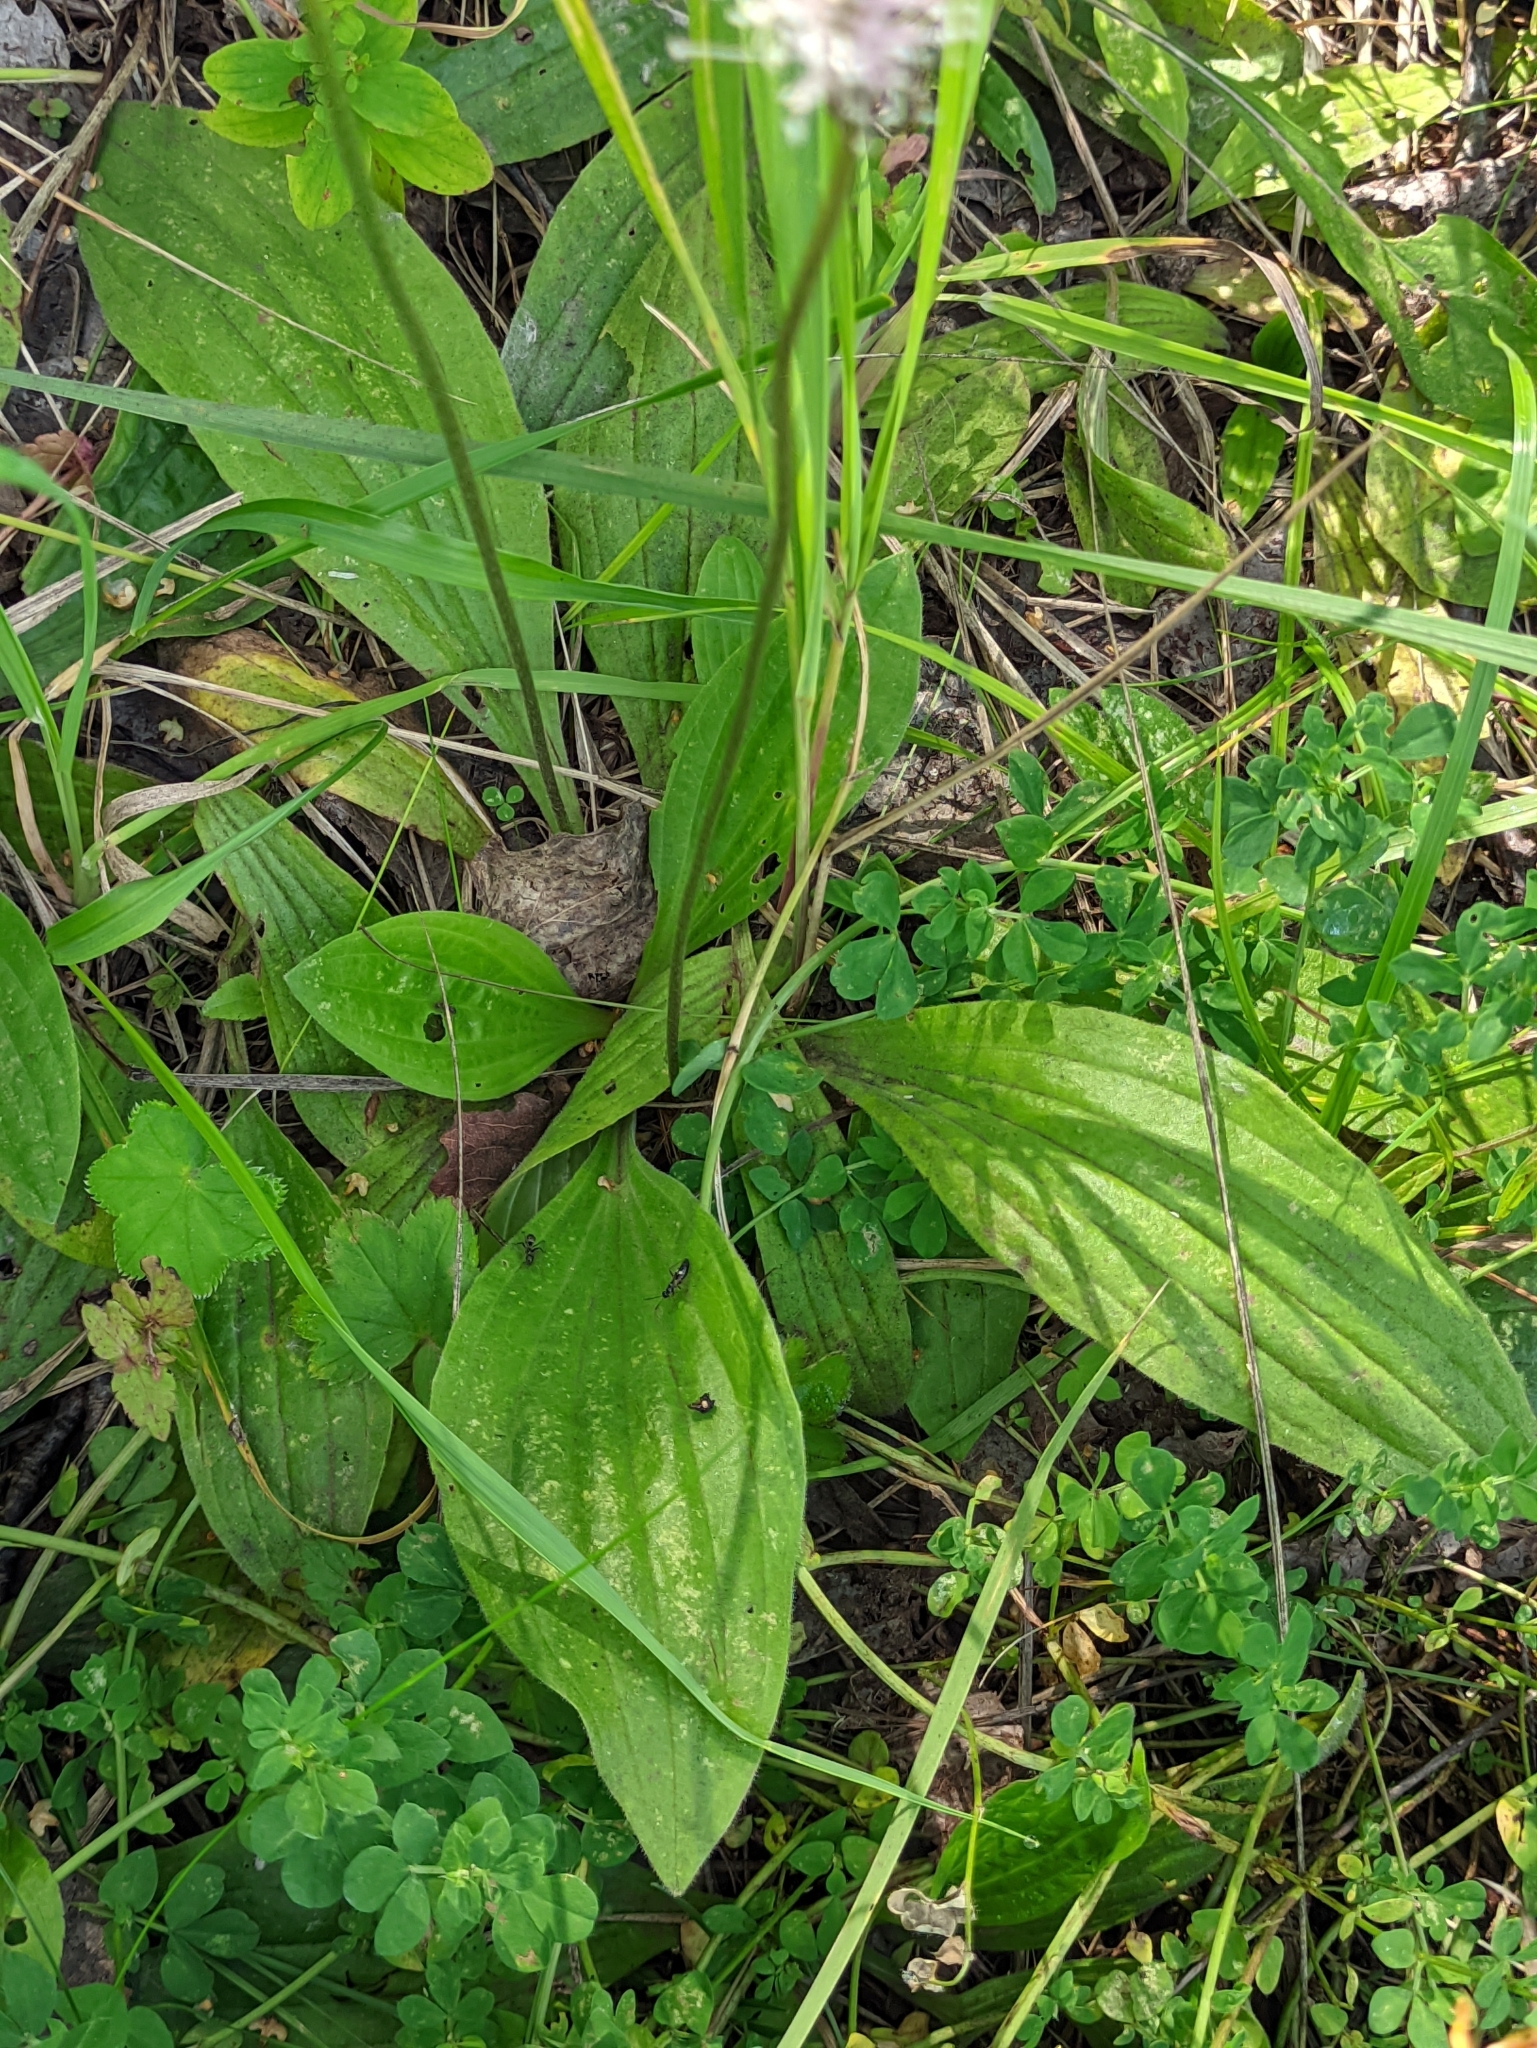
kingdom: Plantae
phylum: Tracheophyta
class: Magnoliopsida
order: Lamiales
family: Plantaginaceae
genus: Plantago
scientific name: Plantago media
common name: Hoary plantain
